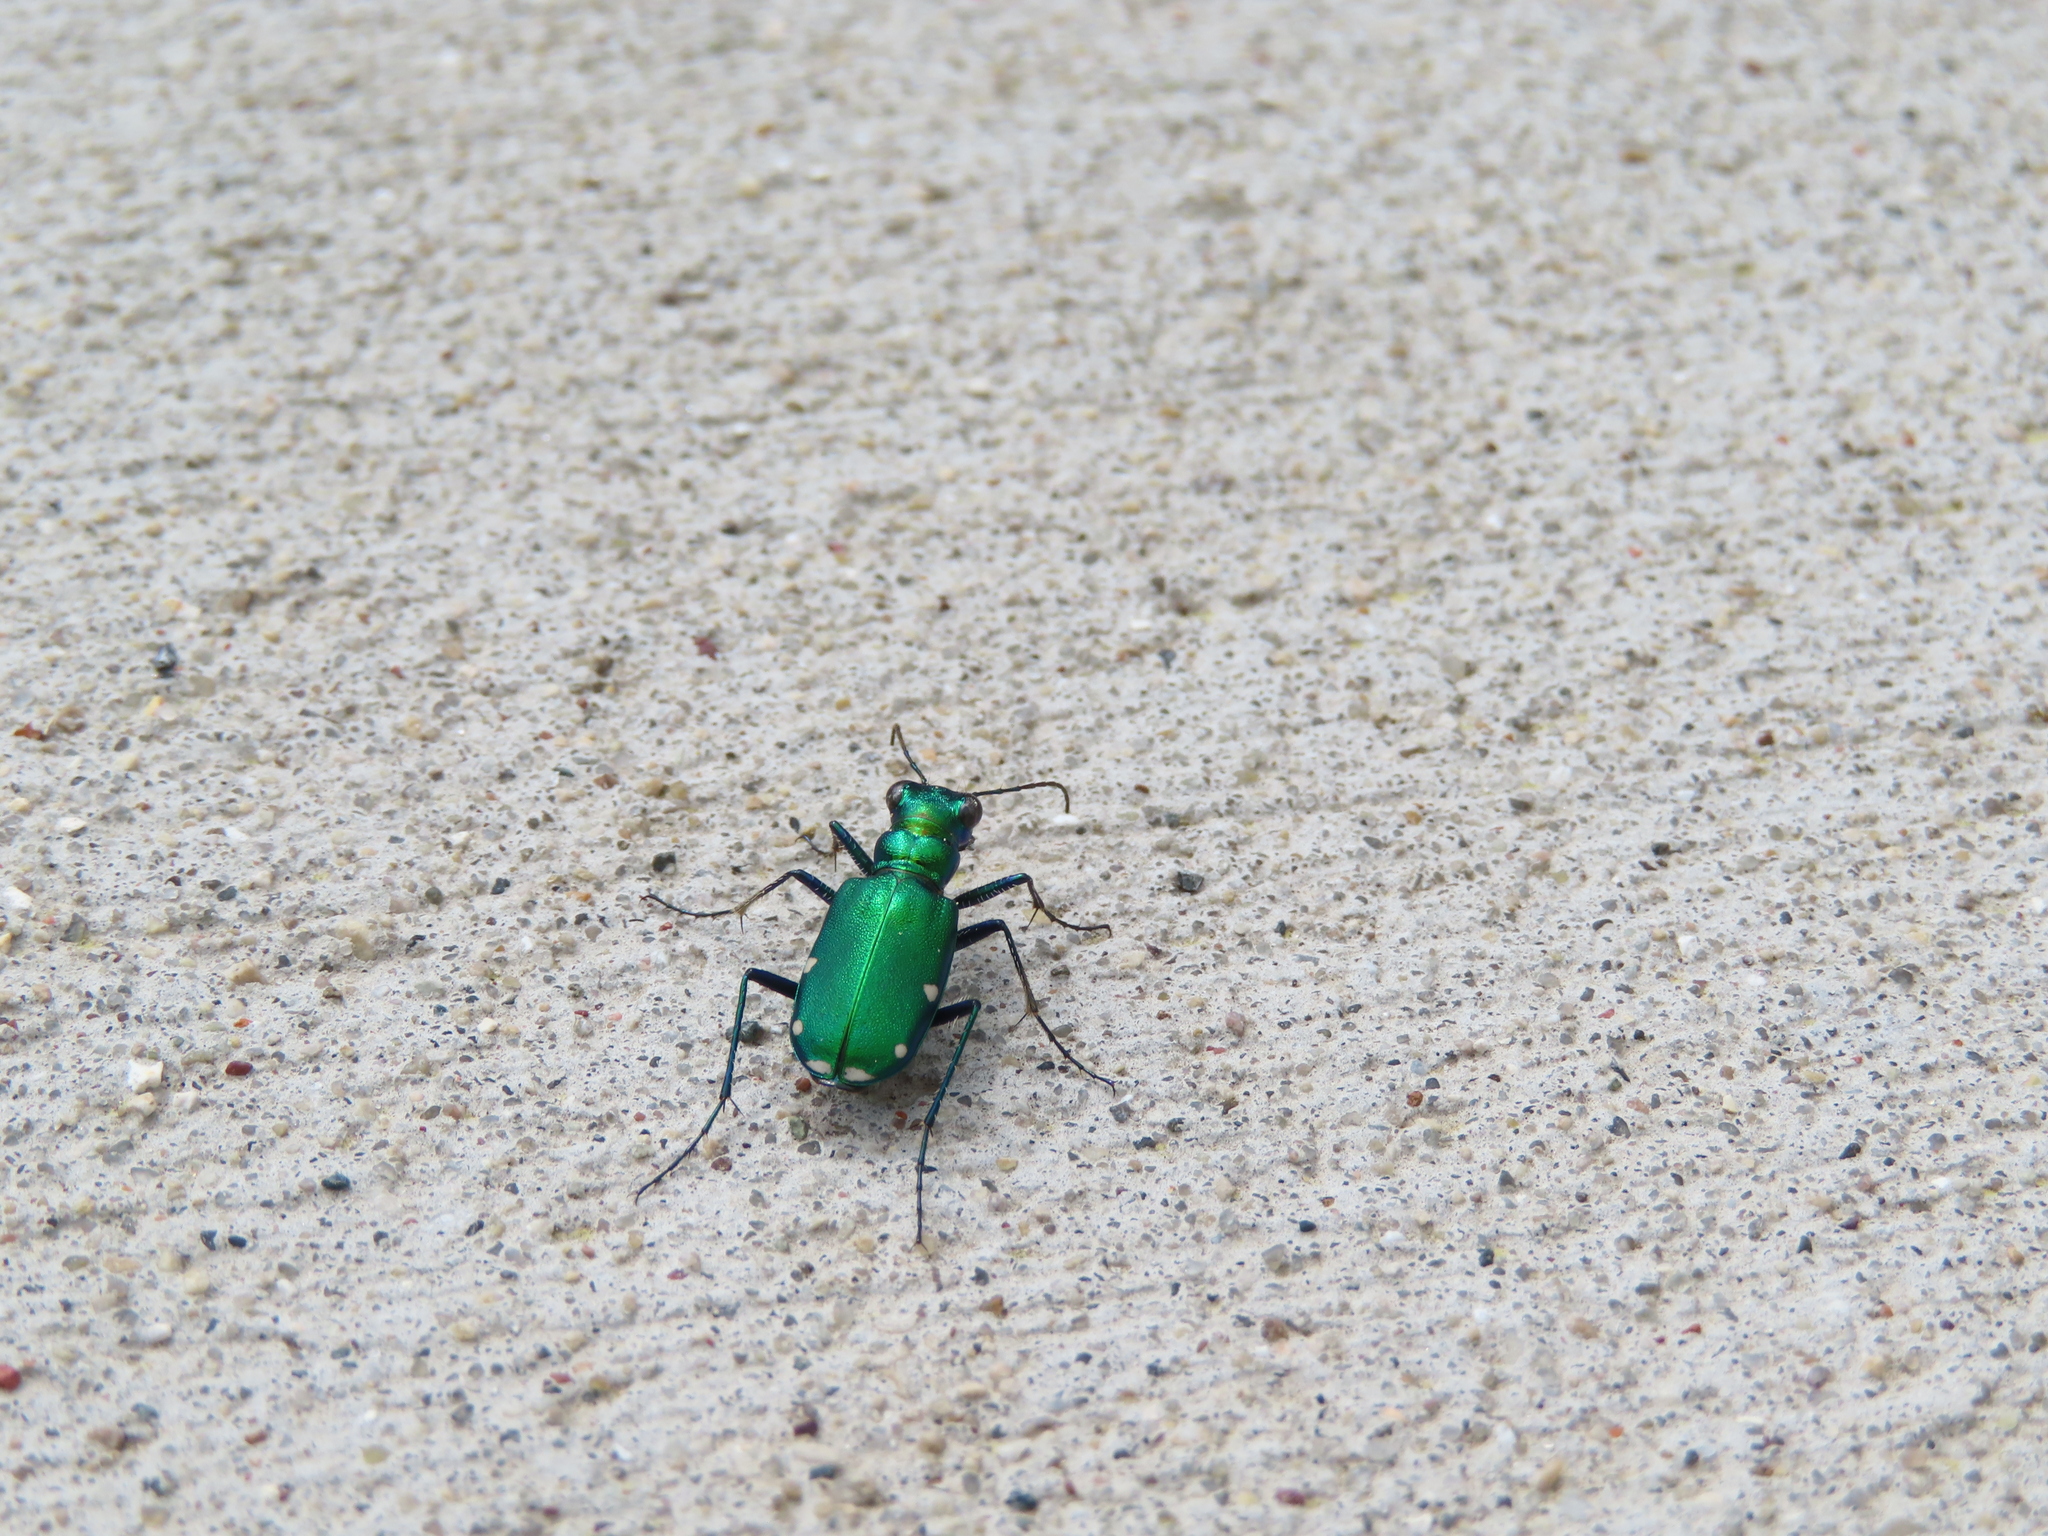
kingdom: Animalia
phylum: Arthropoda
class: Insecta
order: Coleoptera
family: Carabidae
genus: Cicindela
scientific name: Cicindela sexguttata
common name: Six-spotted tiger beetle
